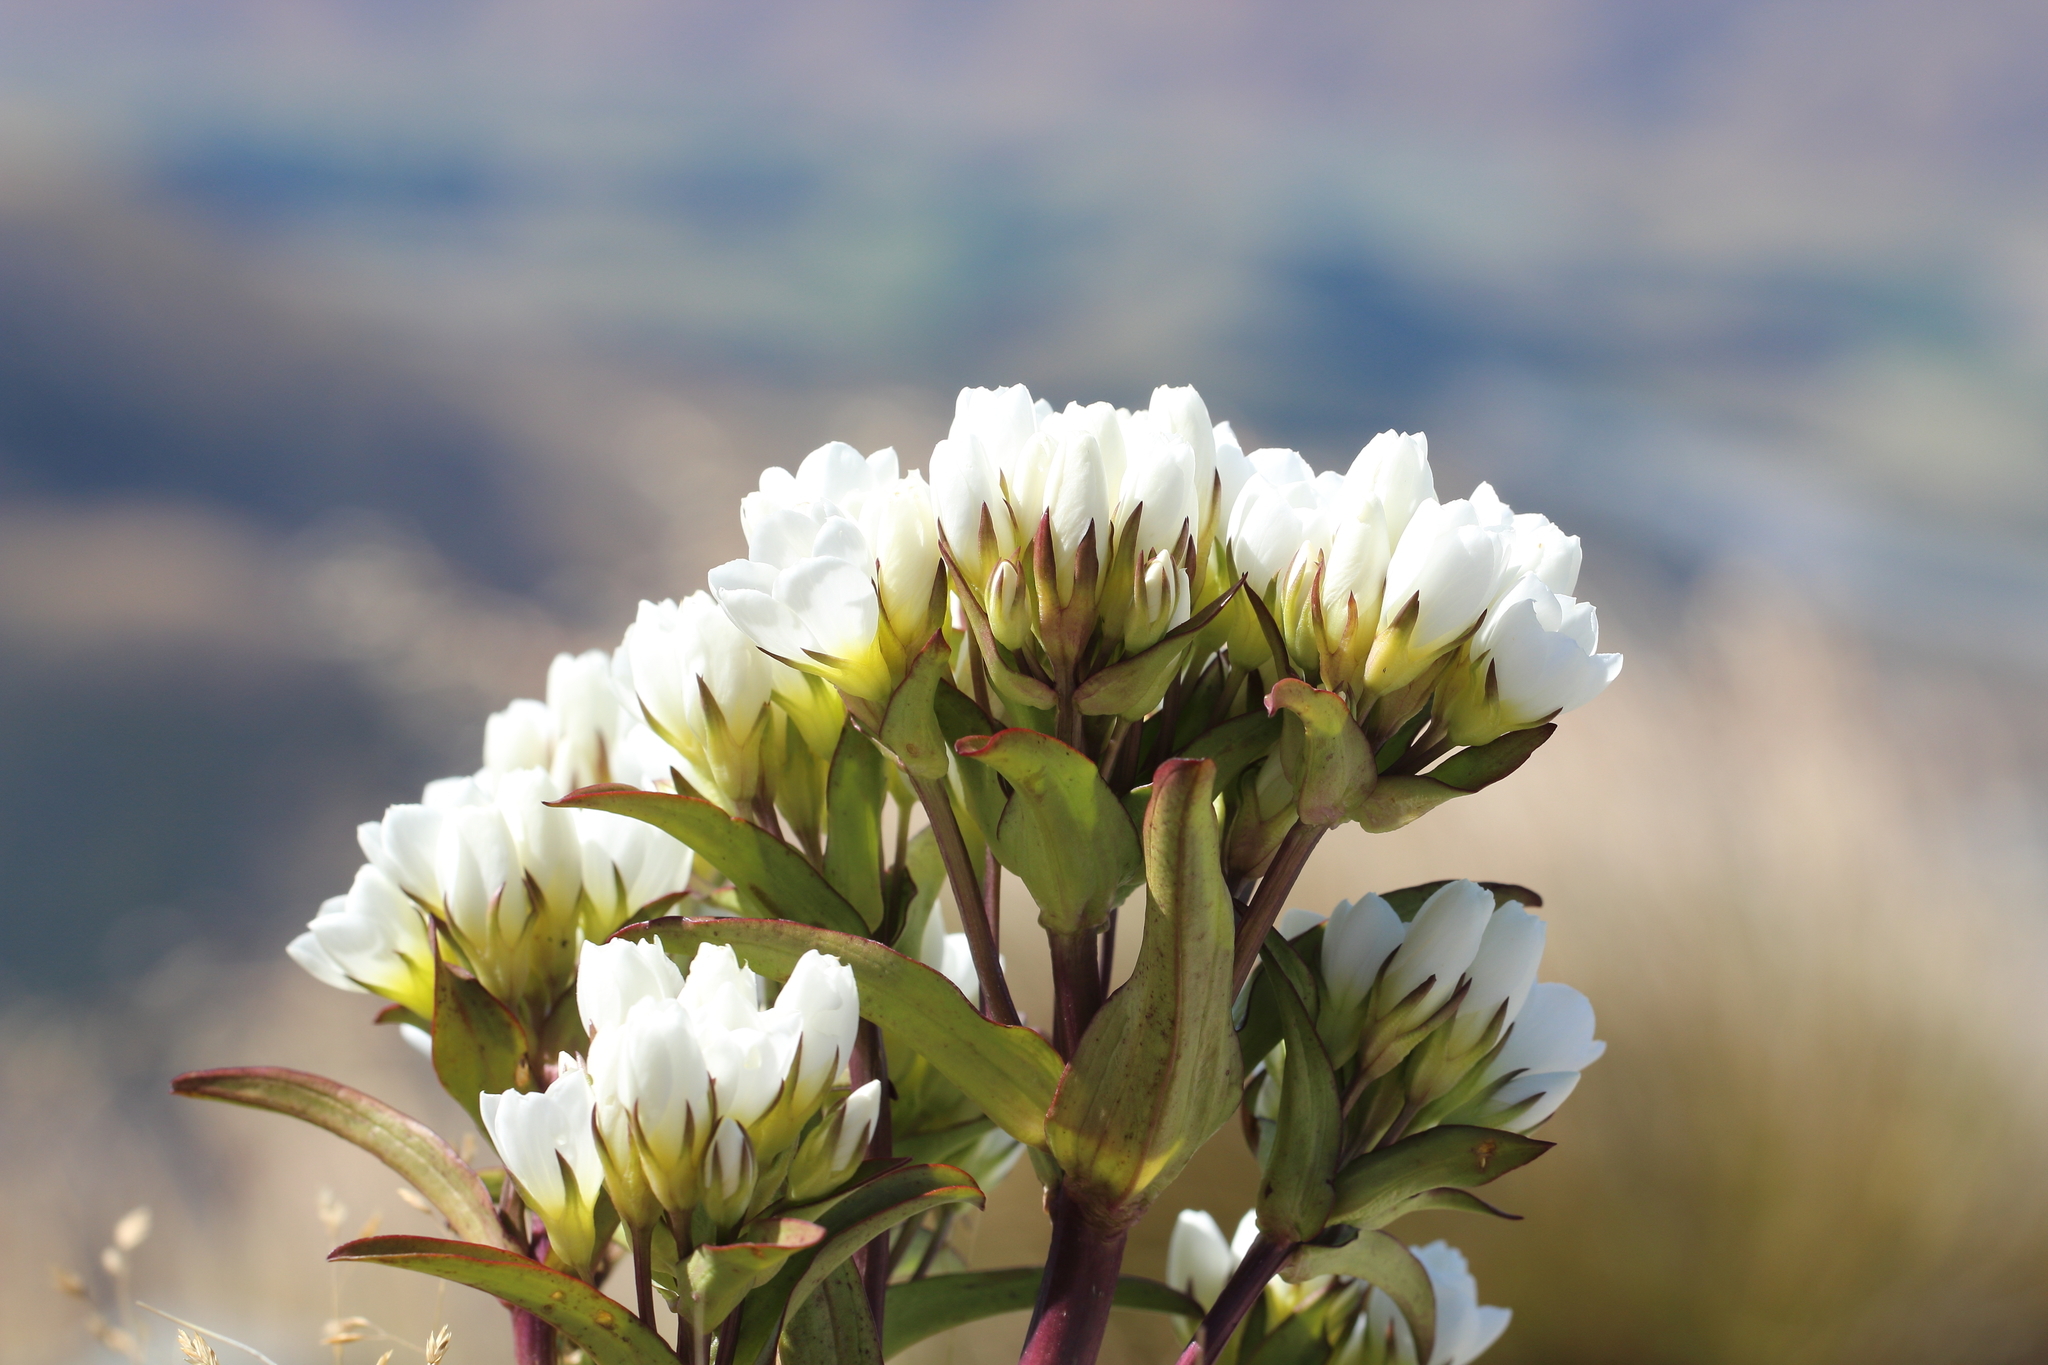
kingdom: Plantae
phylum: Tracheophyta
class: Magnoliopsida
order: Gentianales
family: Gentianaceae
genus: Gentianella
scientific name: Gentianella corymbifera
